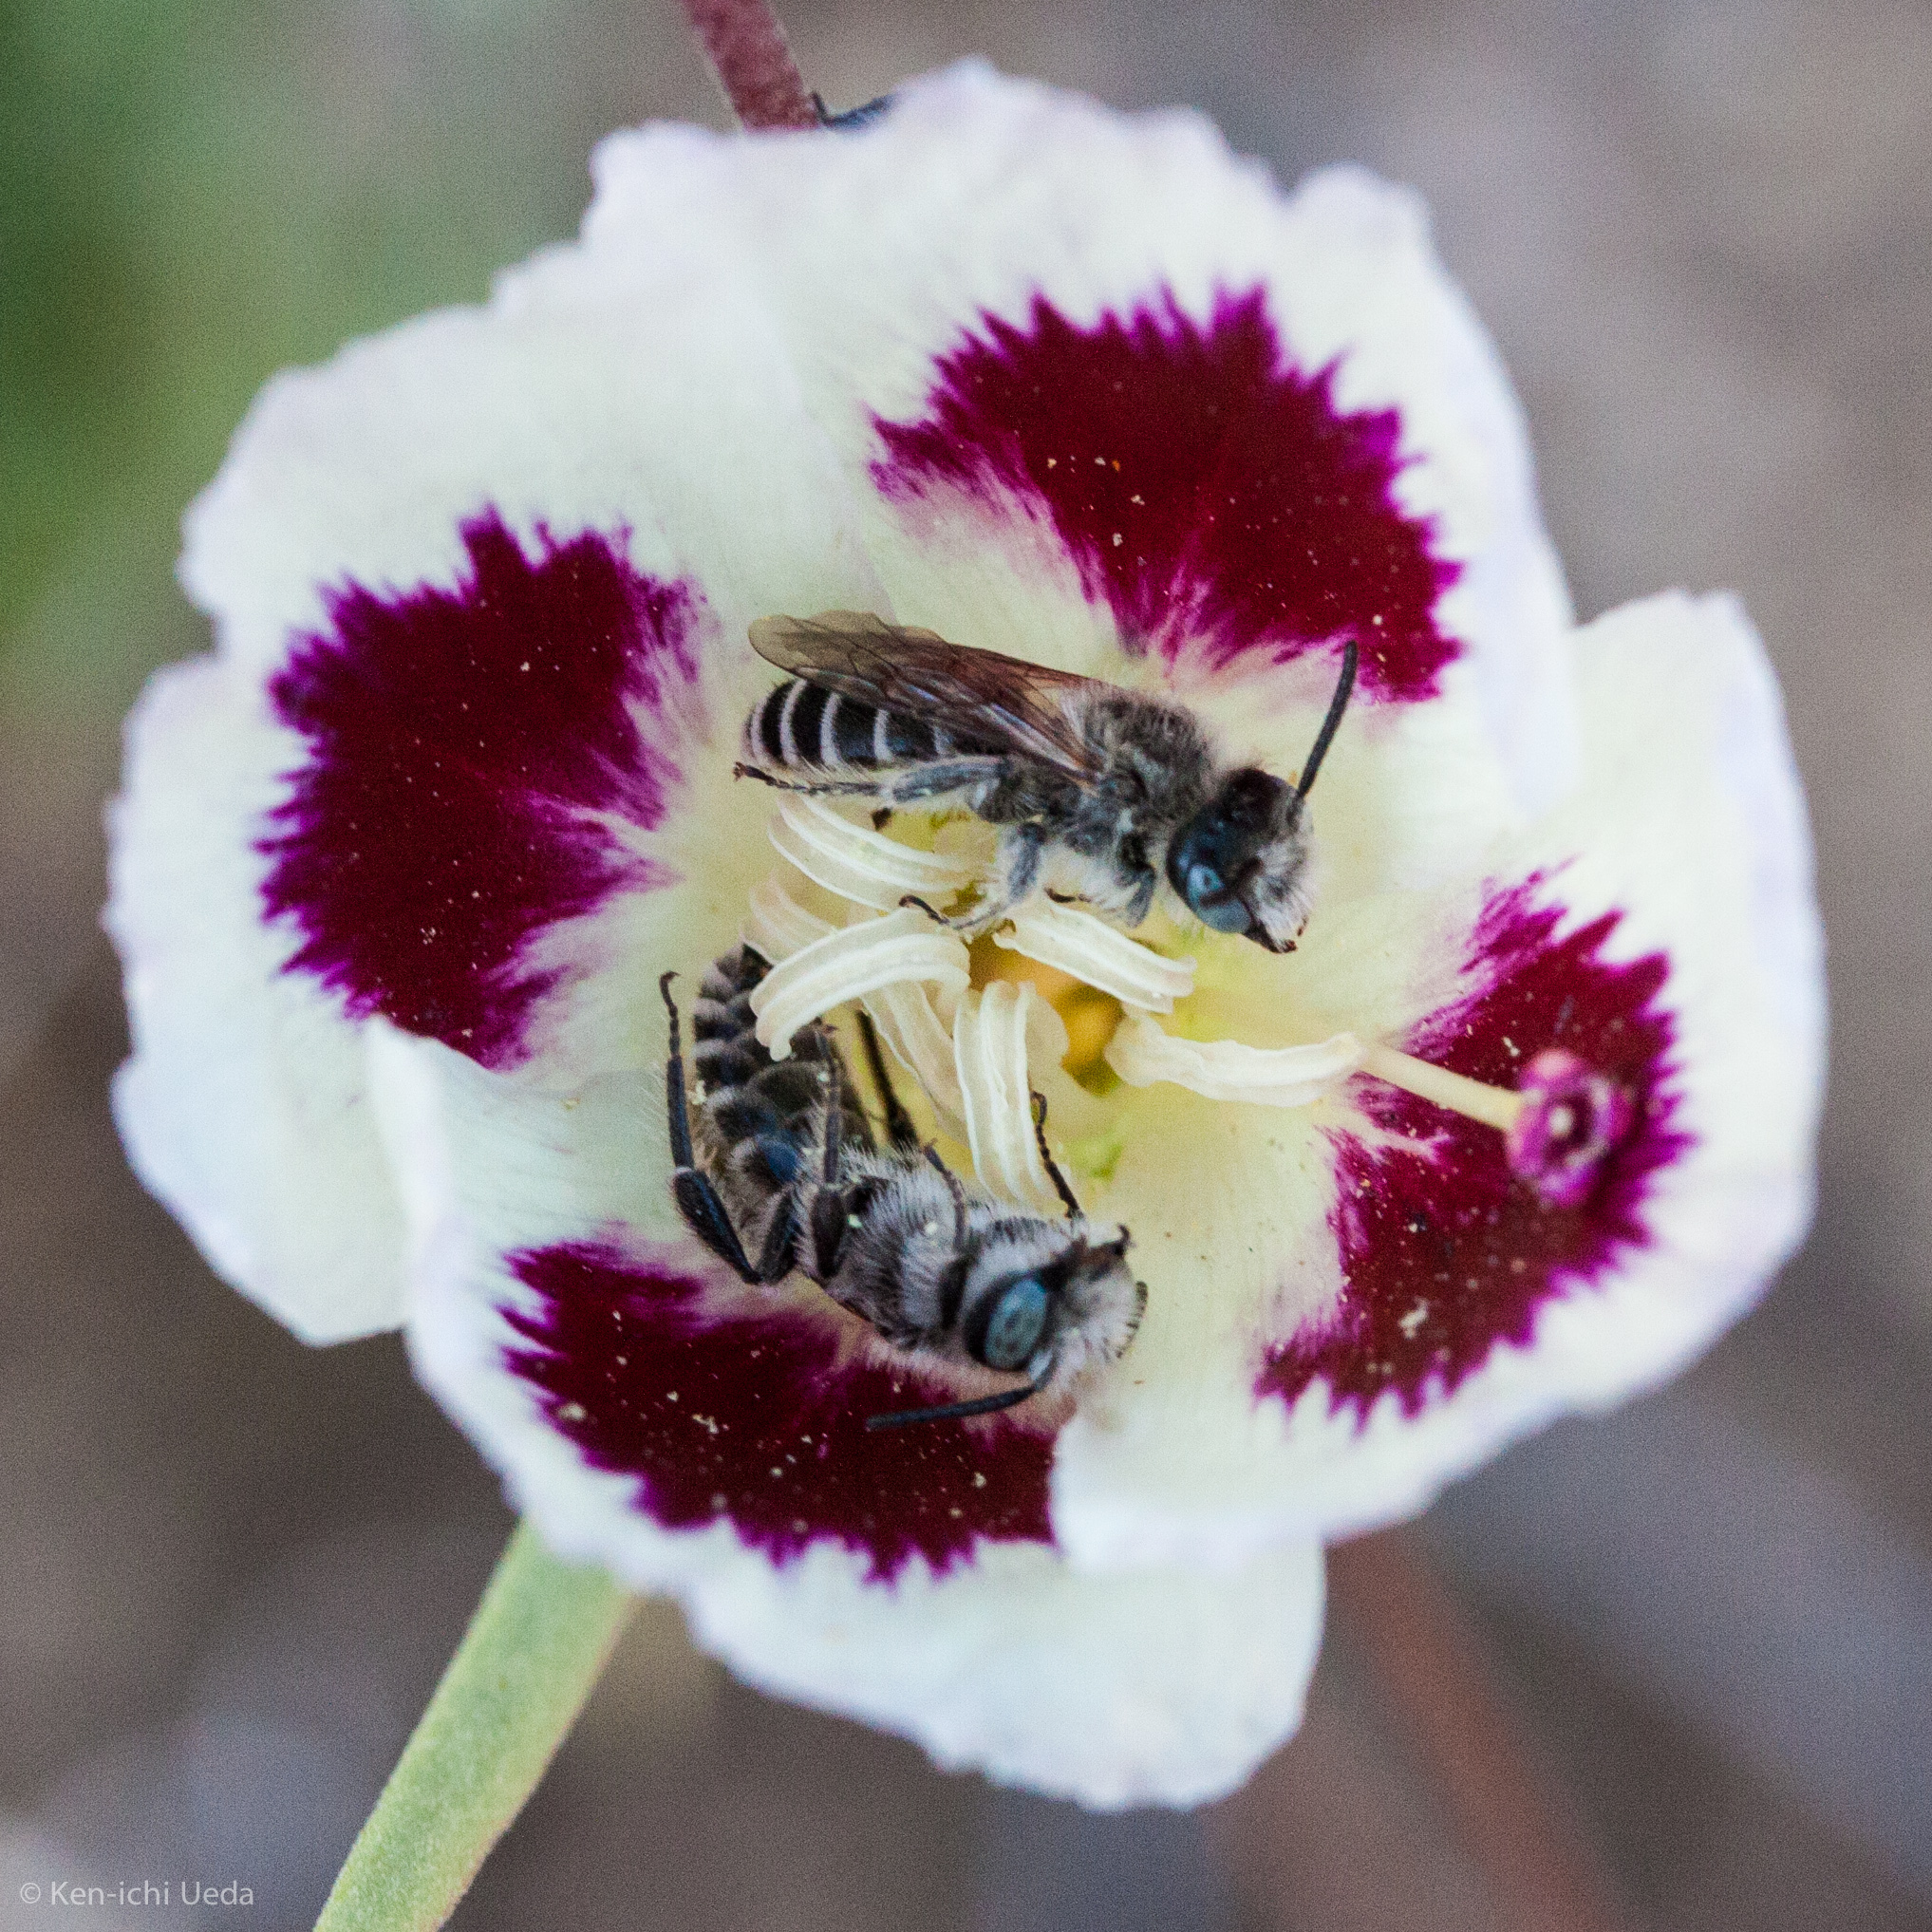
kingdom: Animalia
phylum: Arthropoda
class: Insecta
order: Hymenoptera
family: Melittidae
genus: Hesperapis
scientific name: Hesperapis
